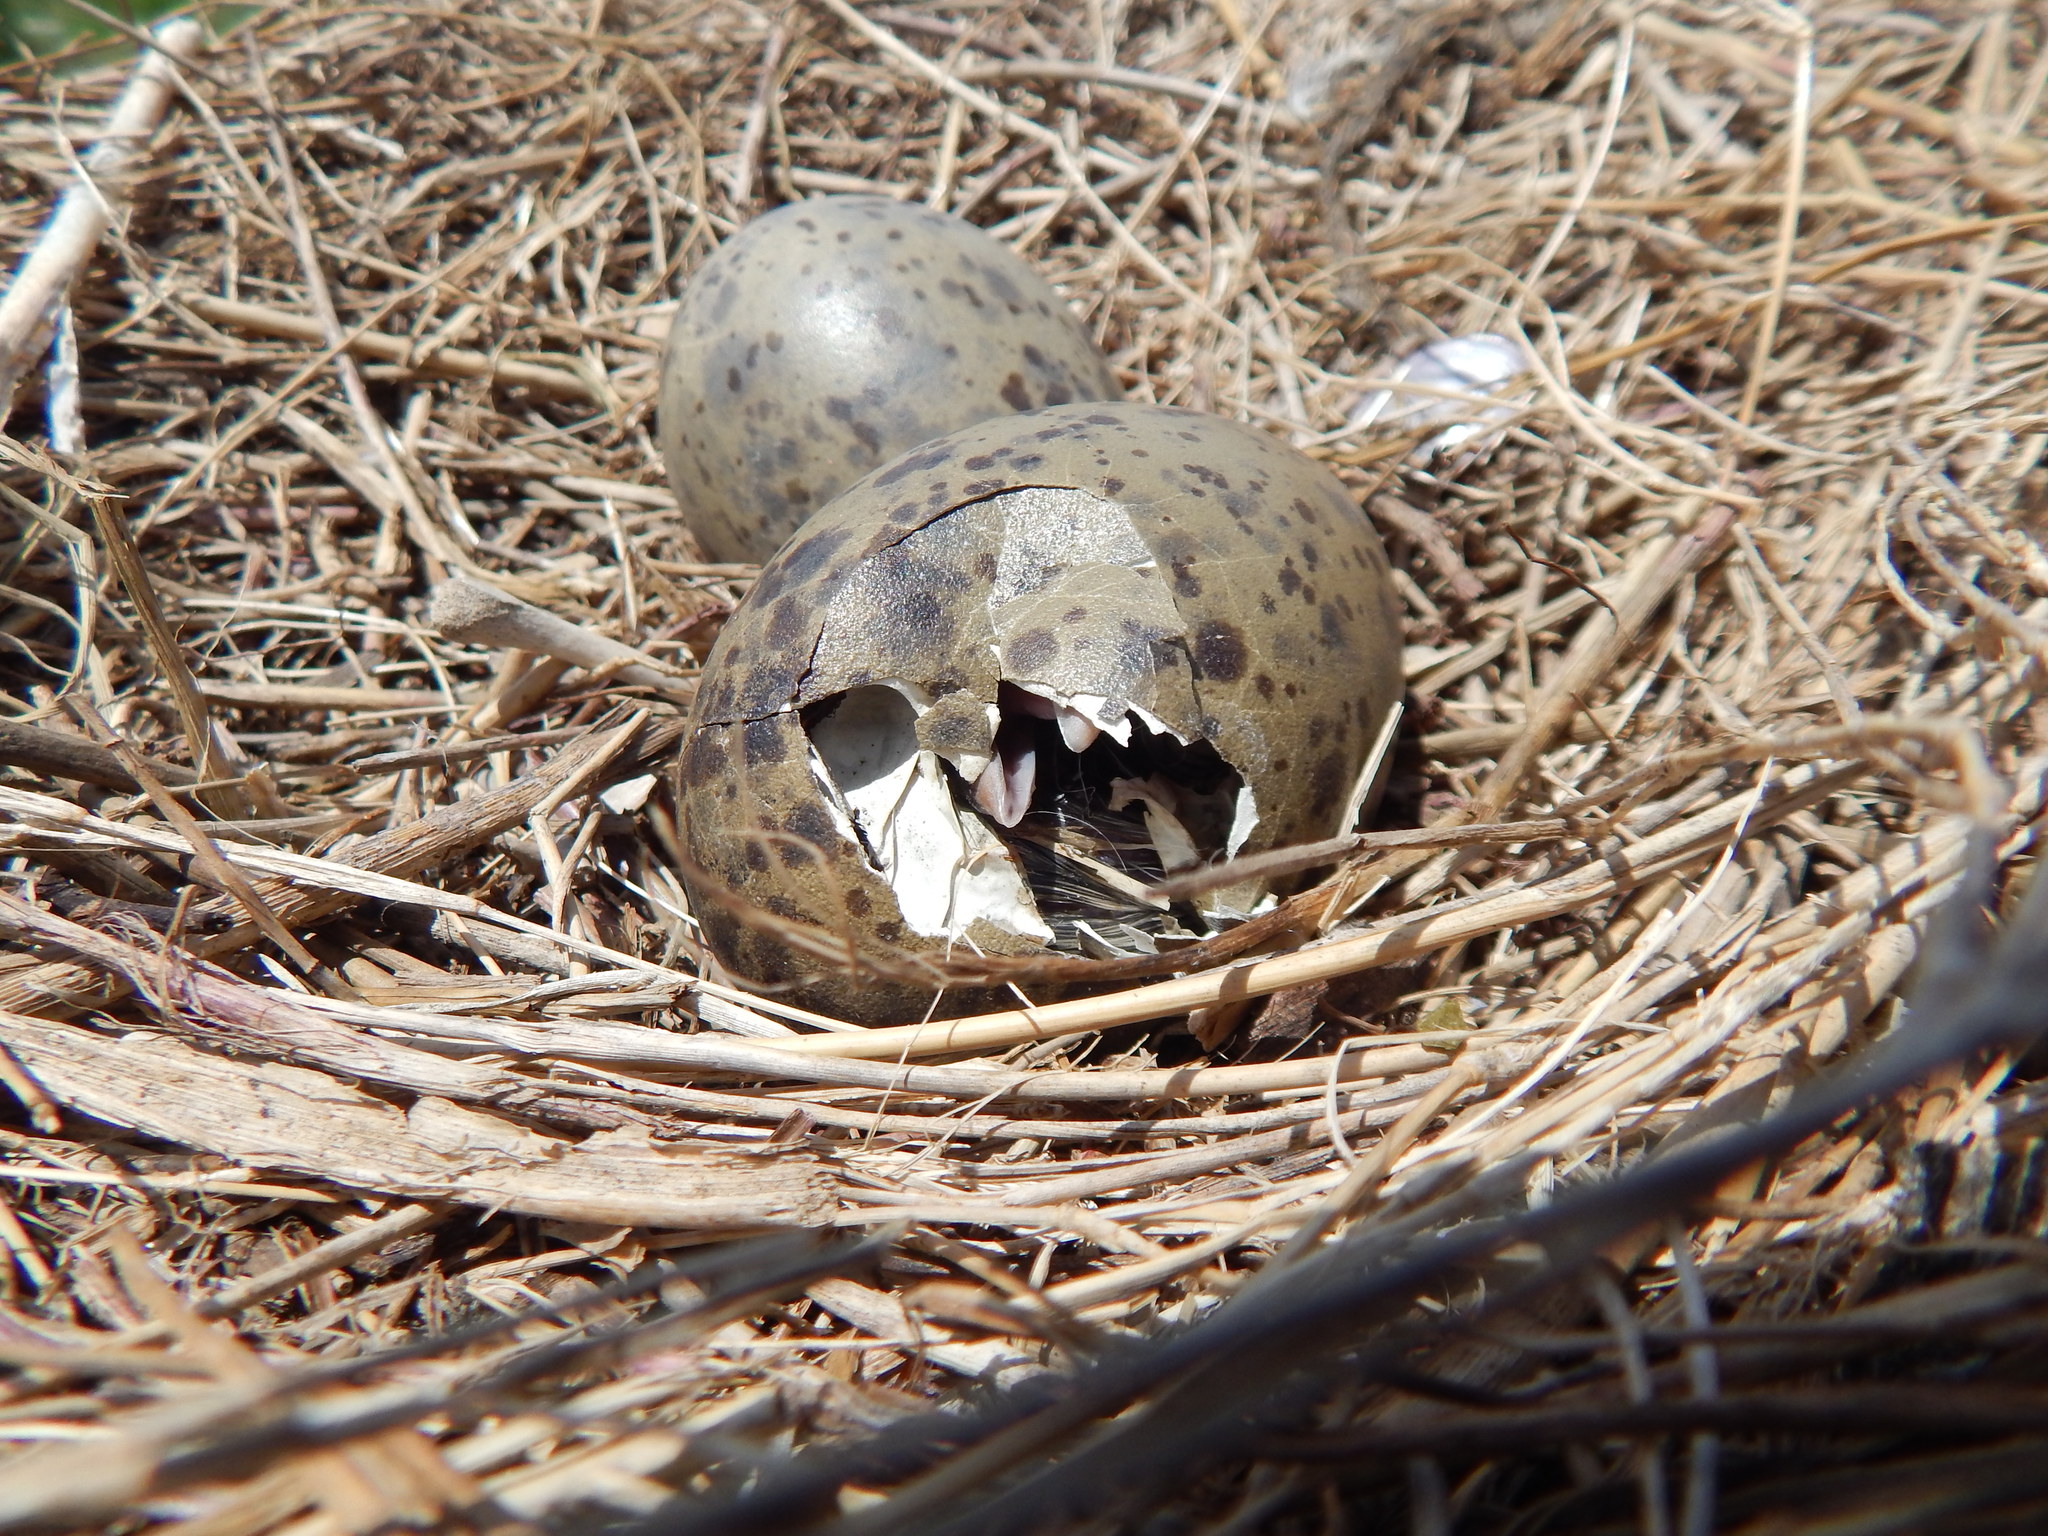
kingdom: Animalia
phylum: Chordata
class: Aves
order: Charadriiformes
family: Laridae
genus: Larus
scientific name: Larus dominicanus
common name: Kelp gull
